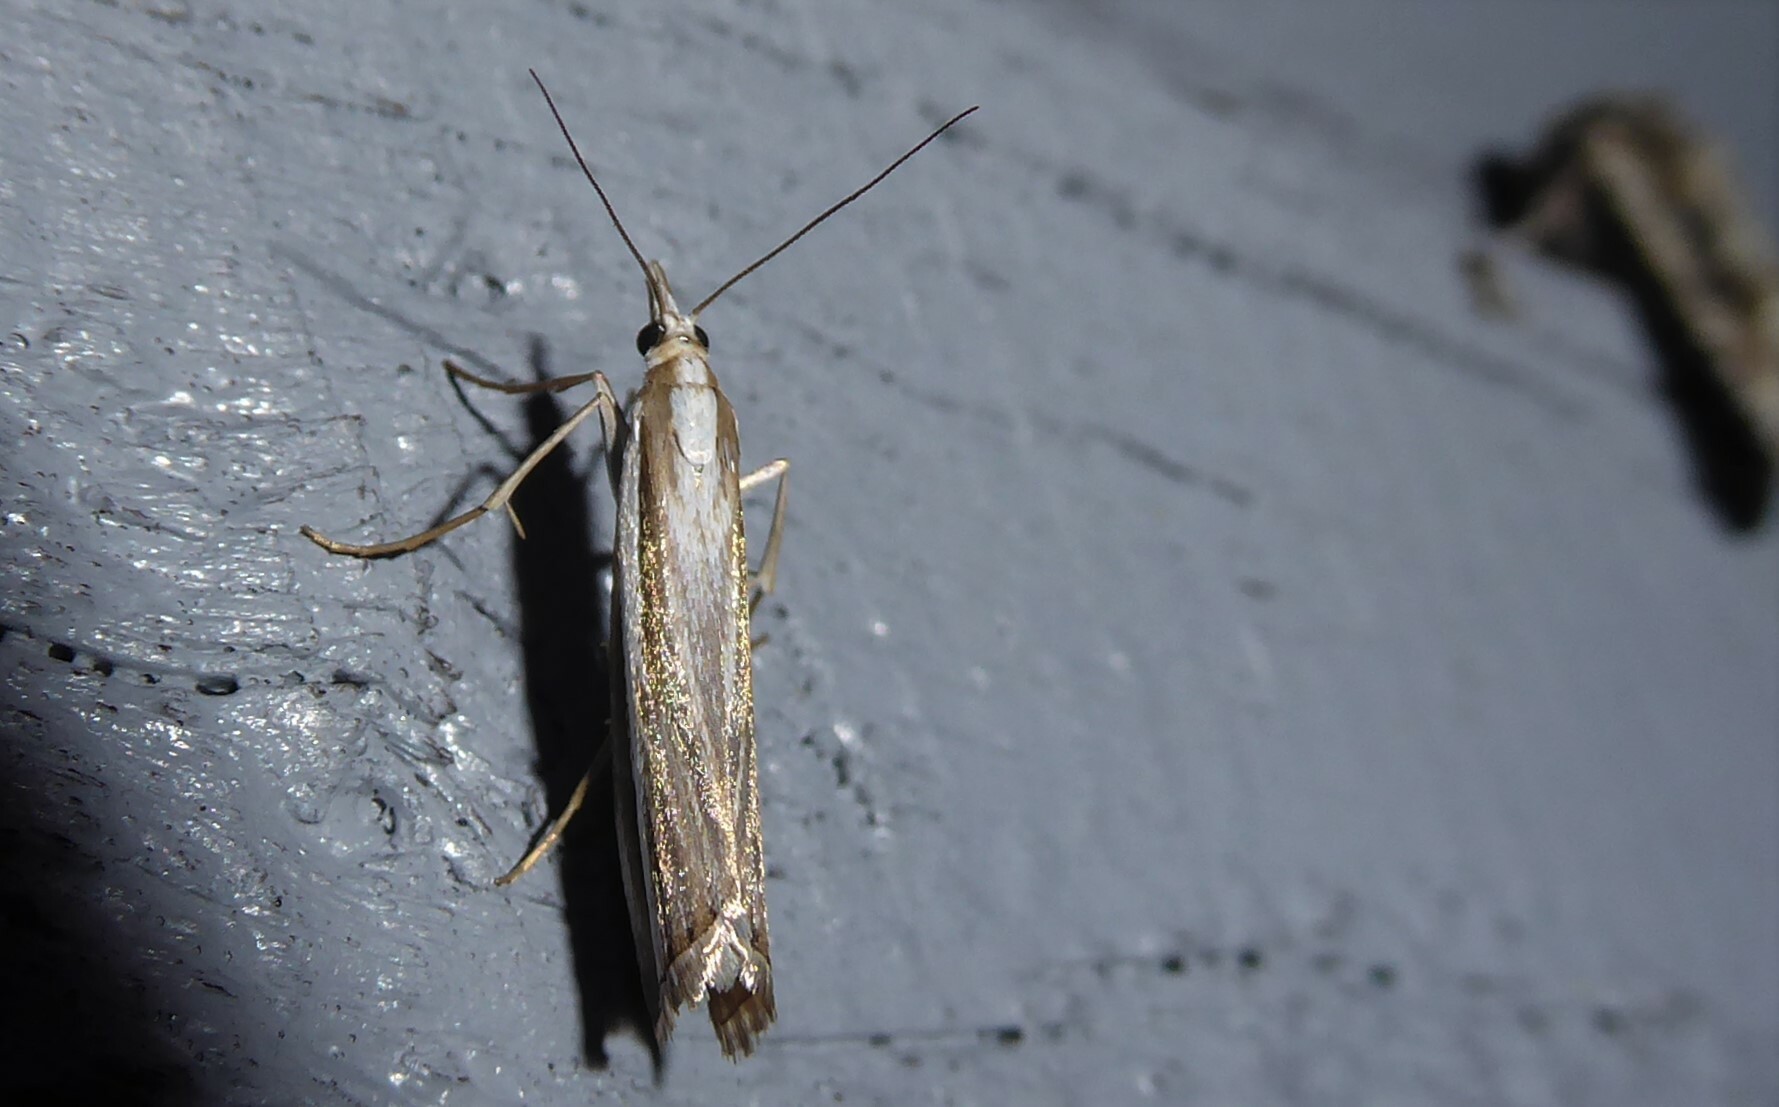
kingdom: Animalia
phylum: Arthropoda
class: Insecta
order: Lepidoptera
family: Crambidae
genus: Orocrambus
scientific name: Orocrambus vittellus
